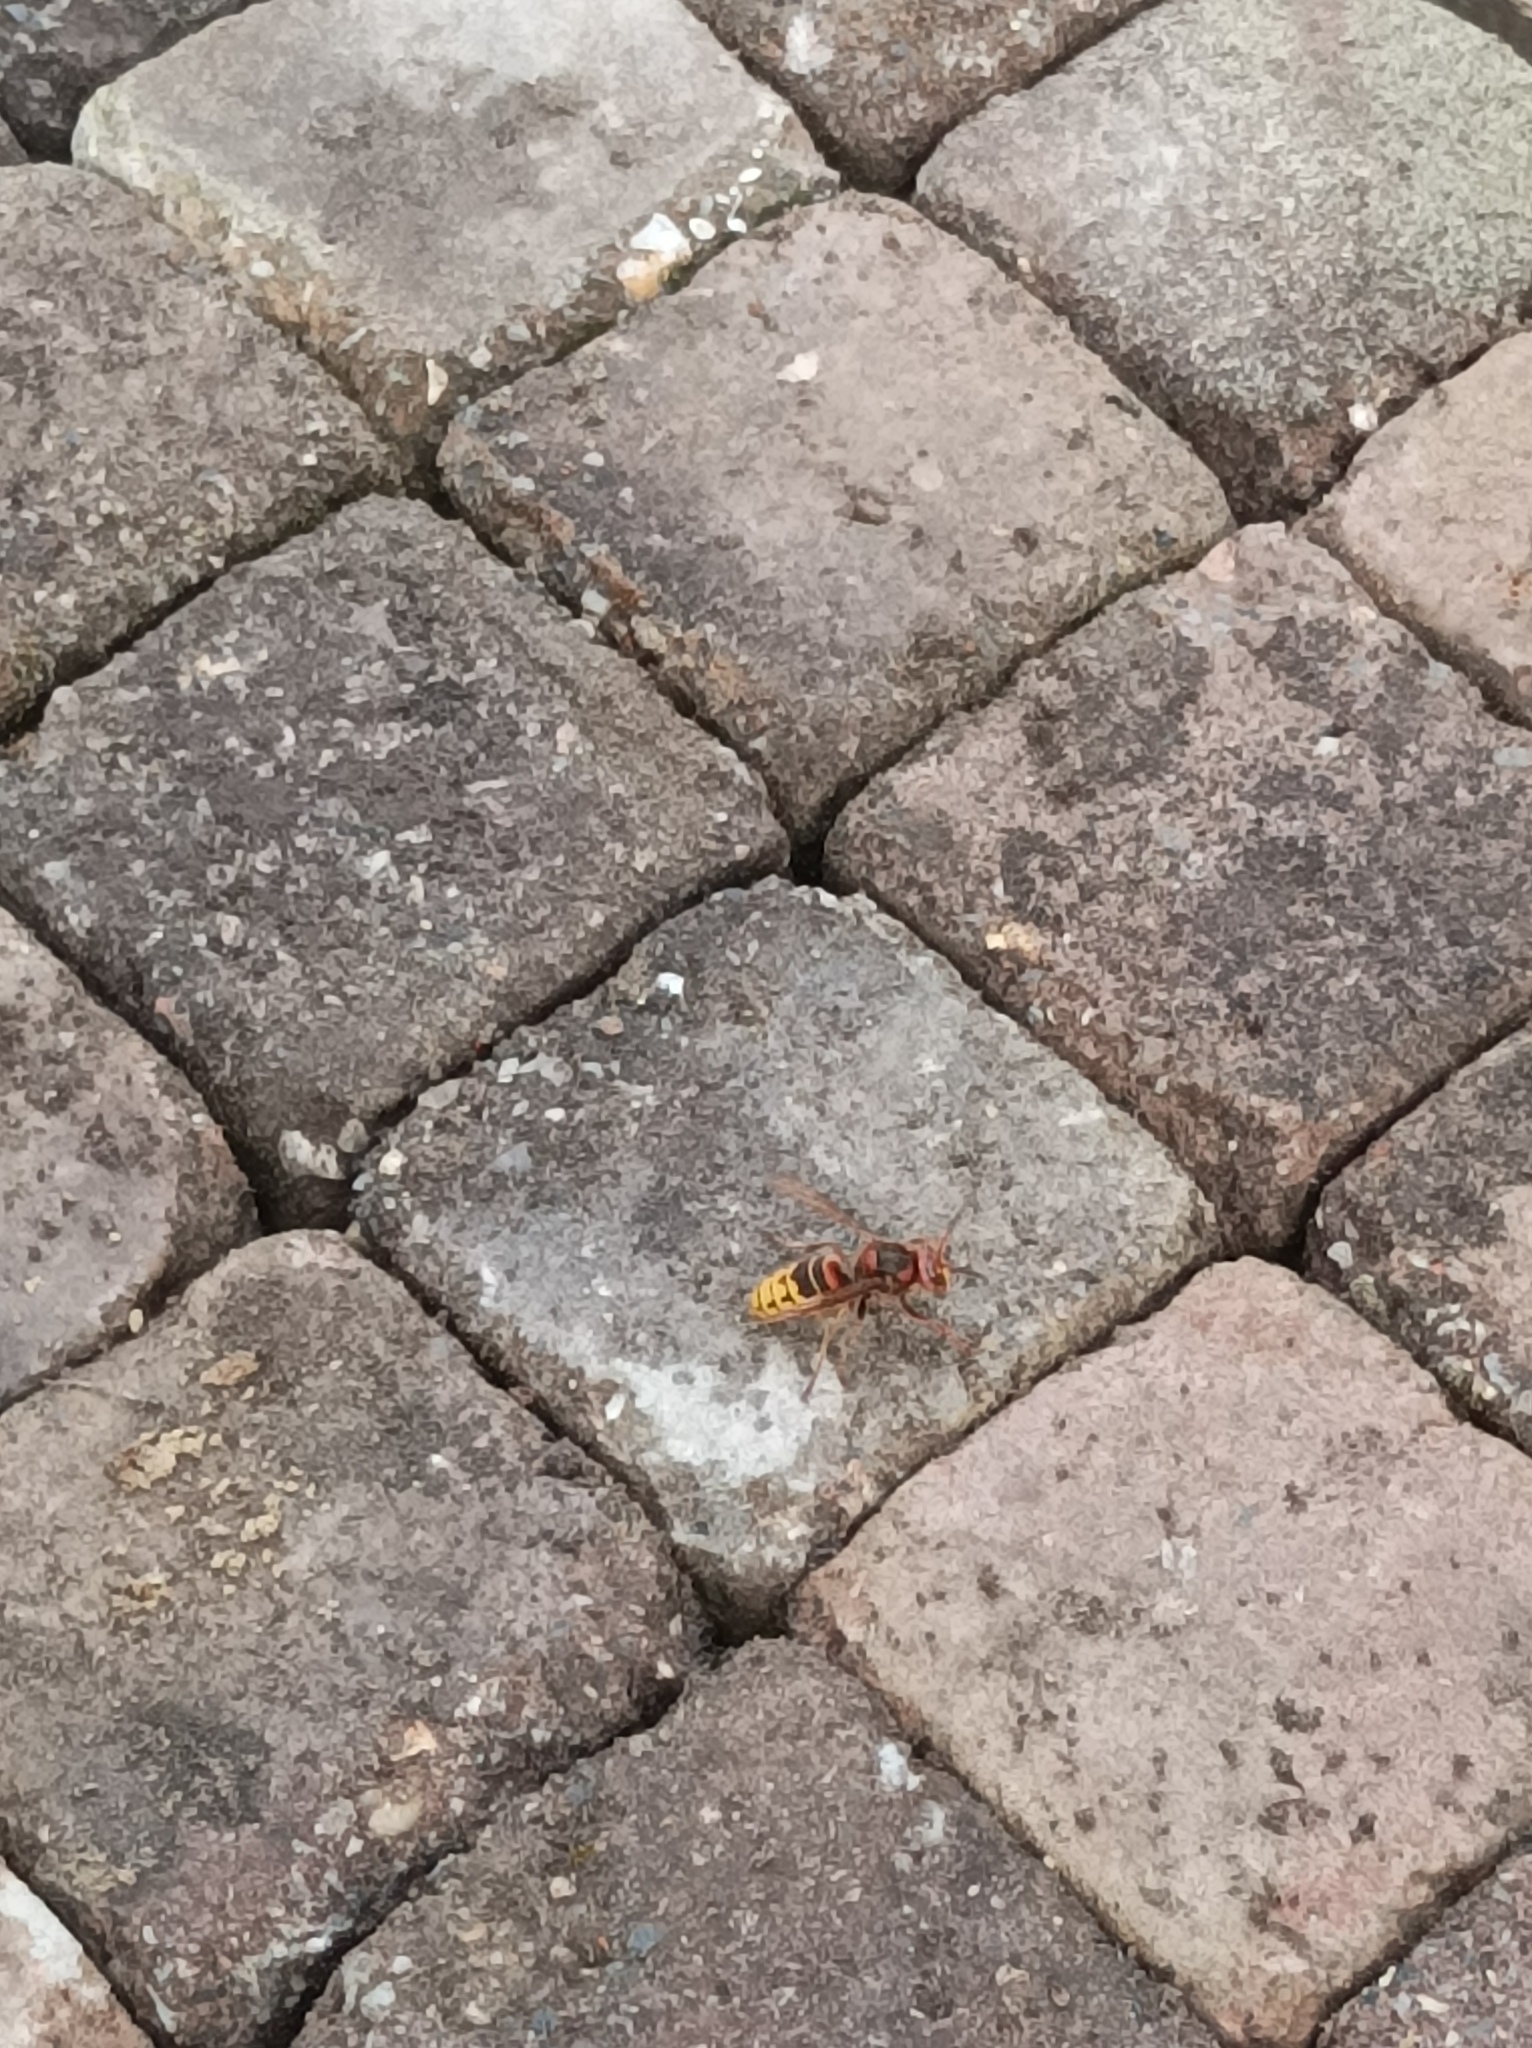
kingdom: Animalia
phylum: Arthropoda
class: Insecta
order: Hymenoptera
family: Vespidae
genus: Vespa
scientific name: Vespa crabro
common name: Hornet
